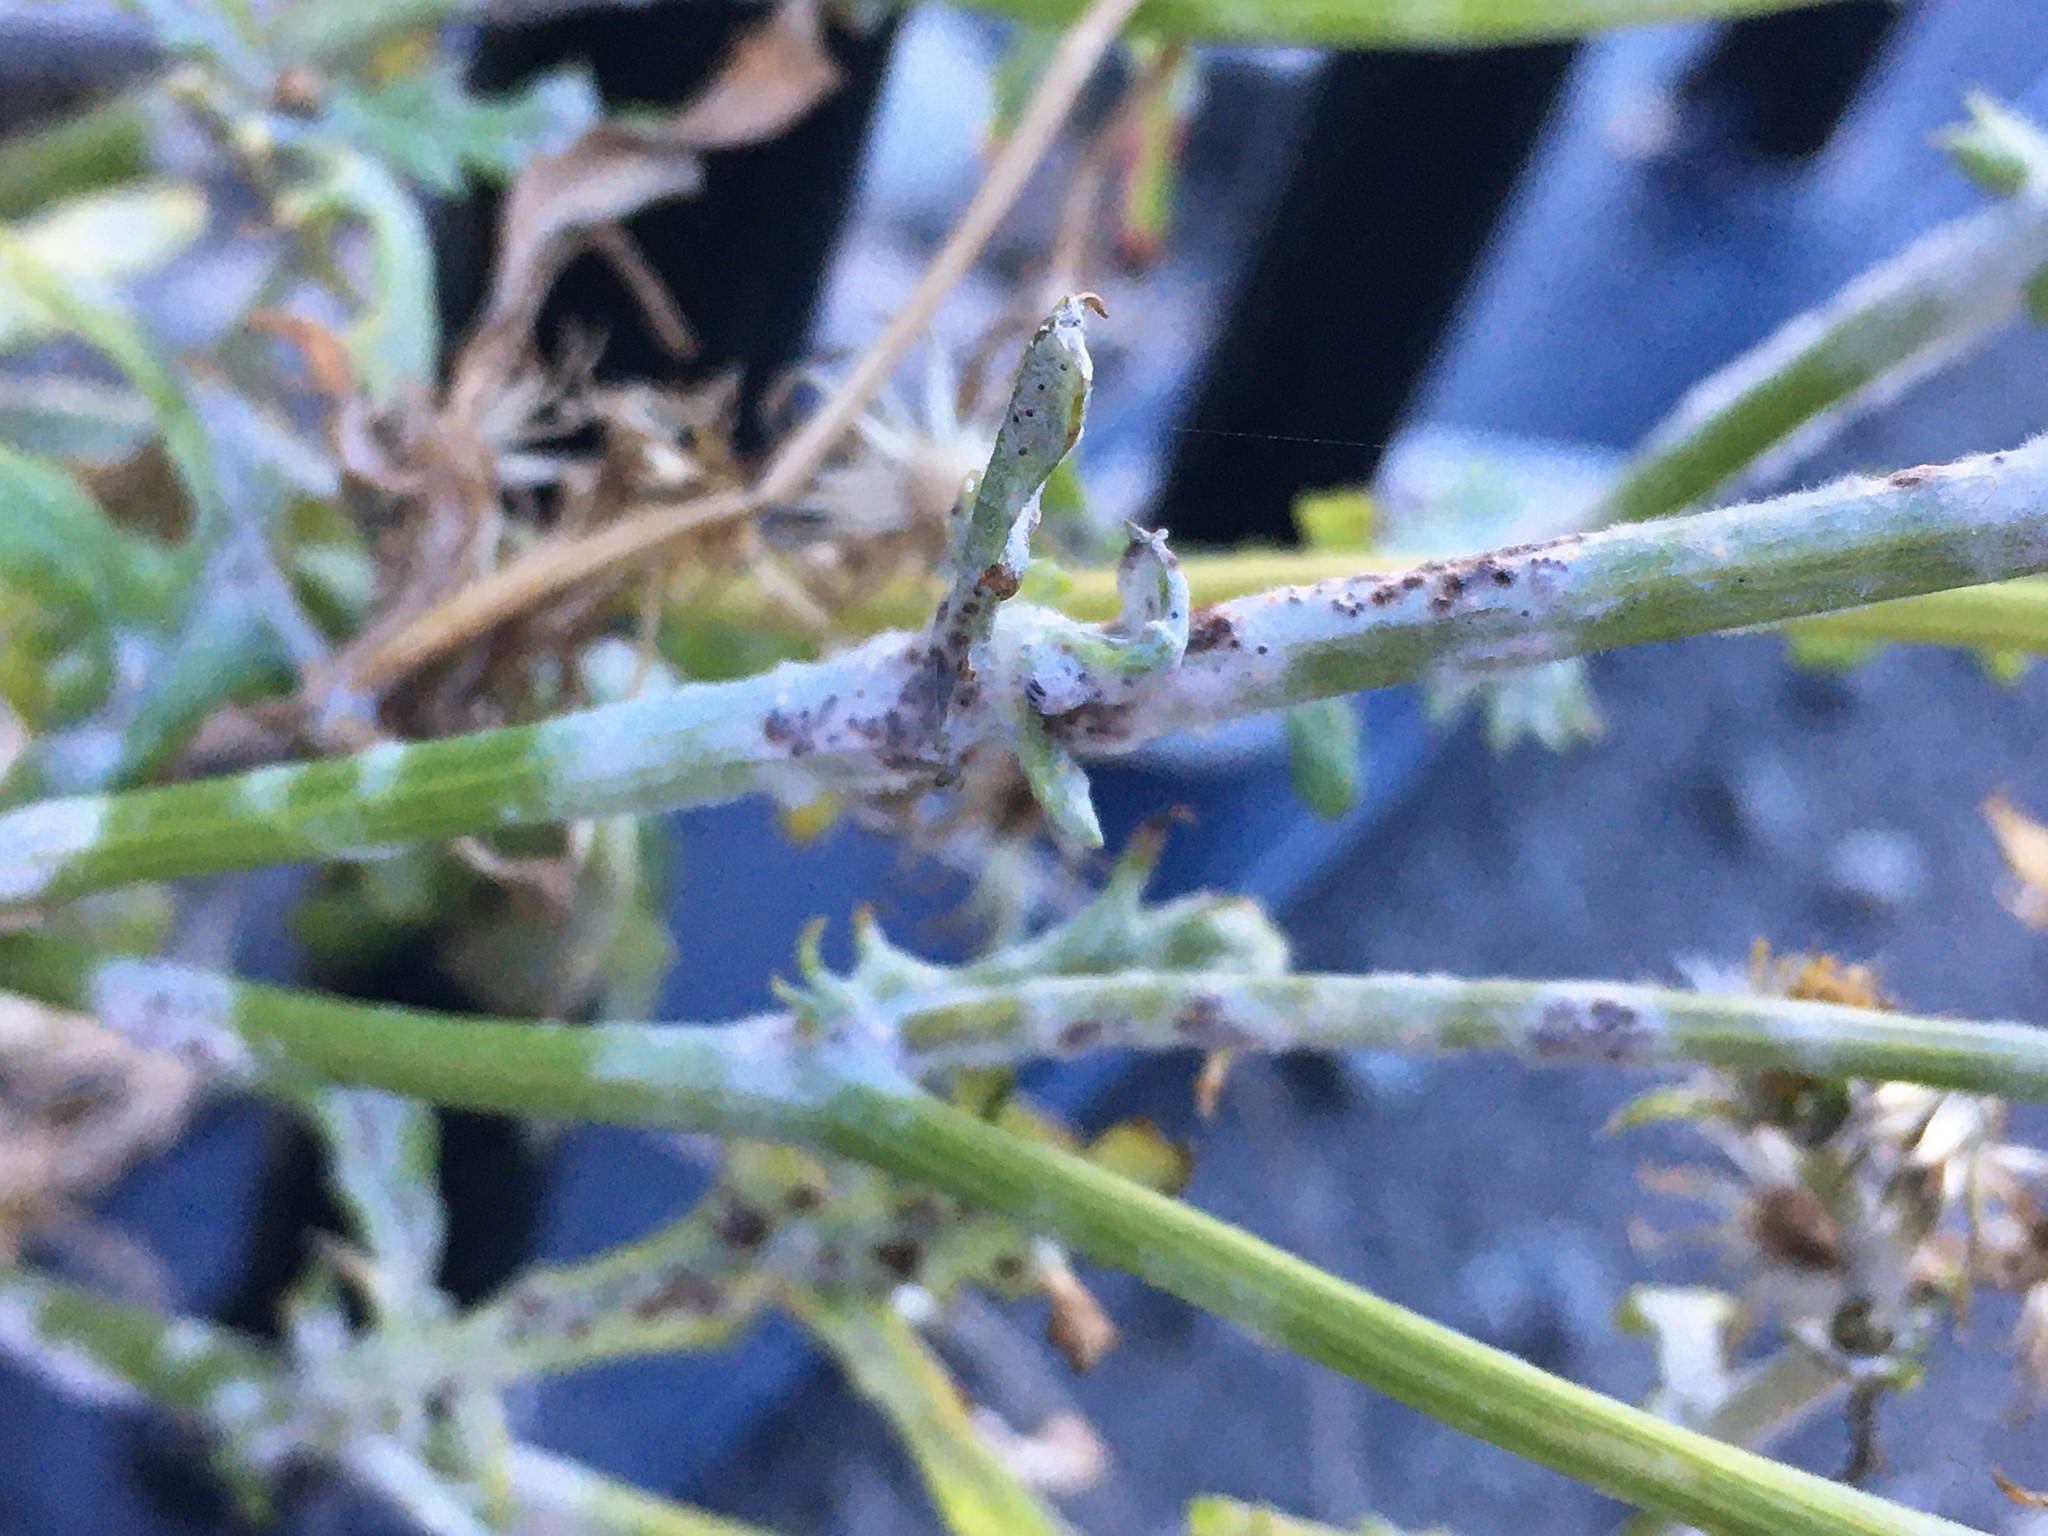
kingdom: Fungi
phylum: Ascomycota
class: Leotiomycetes
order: Helotiales
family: Erysiphaceae
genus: Neoerysiphe
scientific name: Neoerysiphe kerribeeensis
